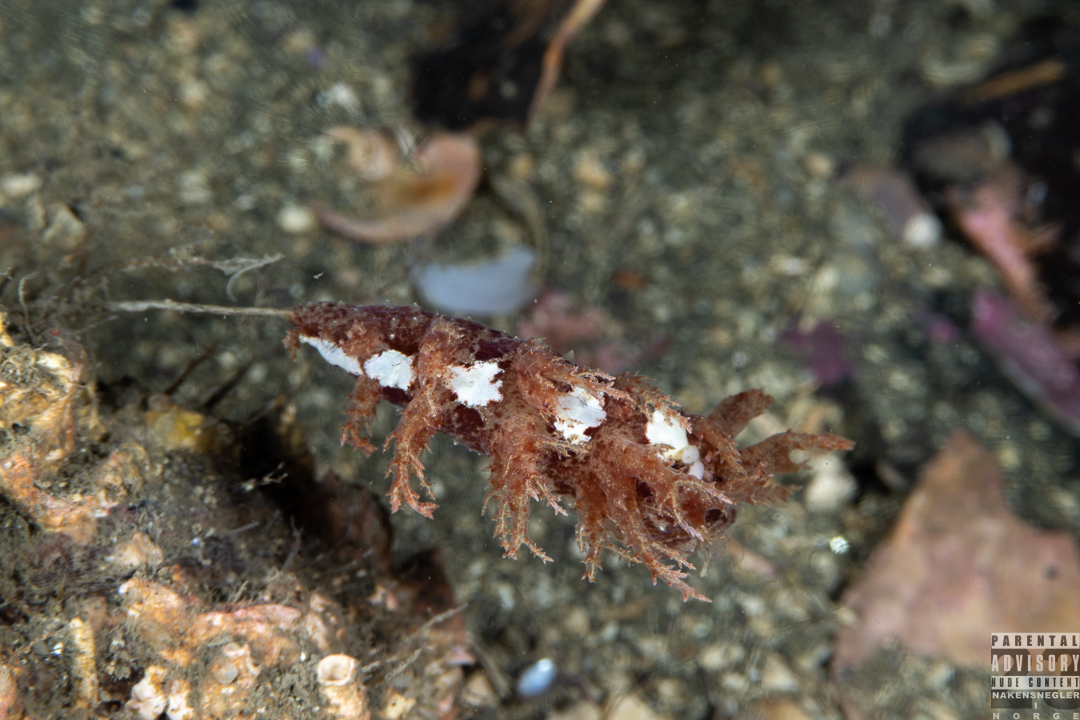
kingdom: Animalia
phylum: Mollusca
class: Gastropoda
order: Nudibranchia
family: Dendronotidae
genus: Dendronotus
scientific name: Dendronotus europaeus
